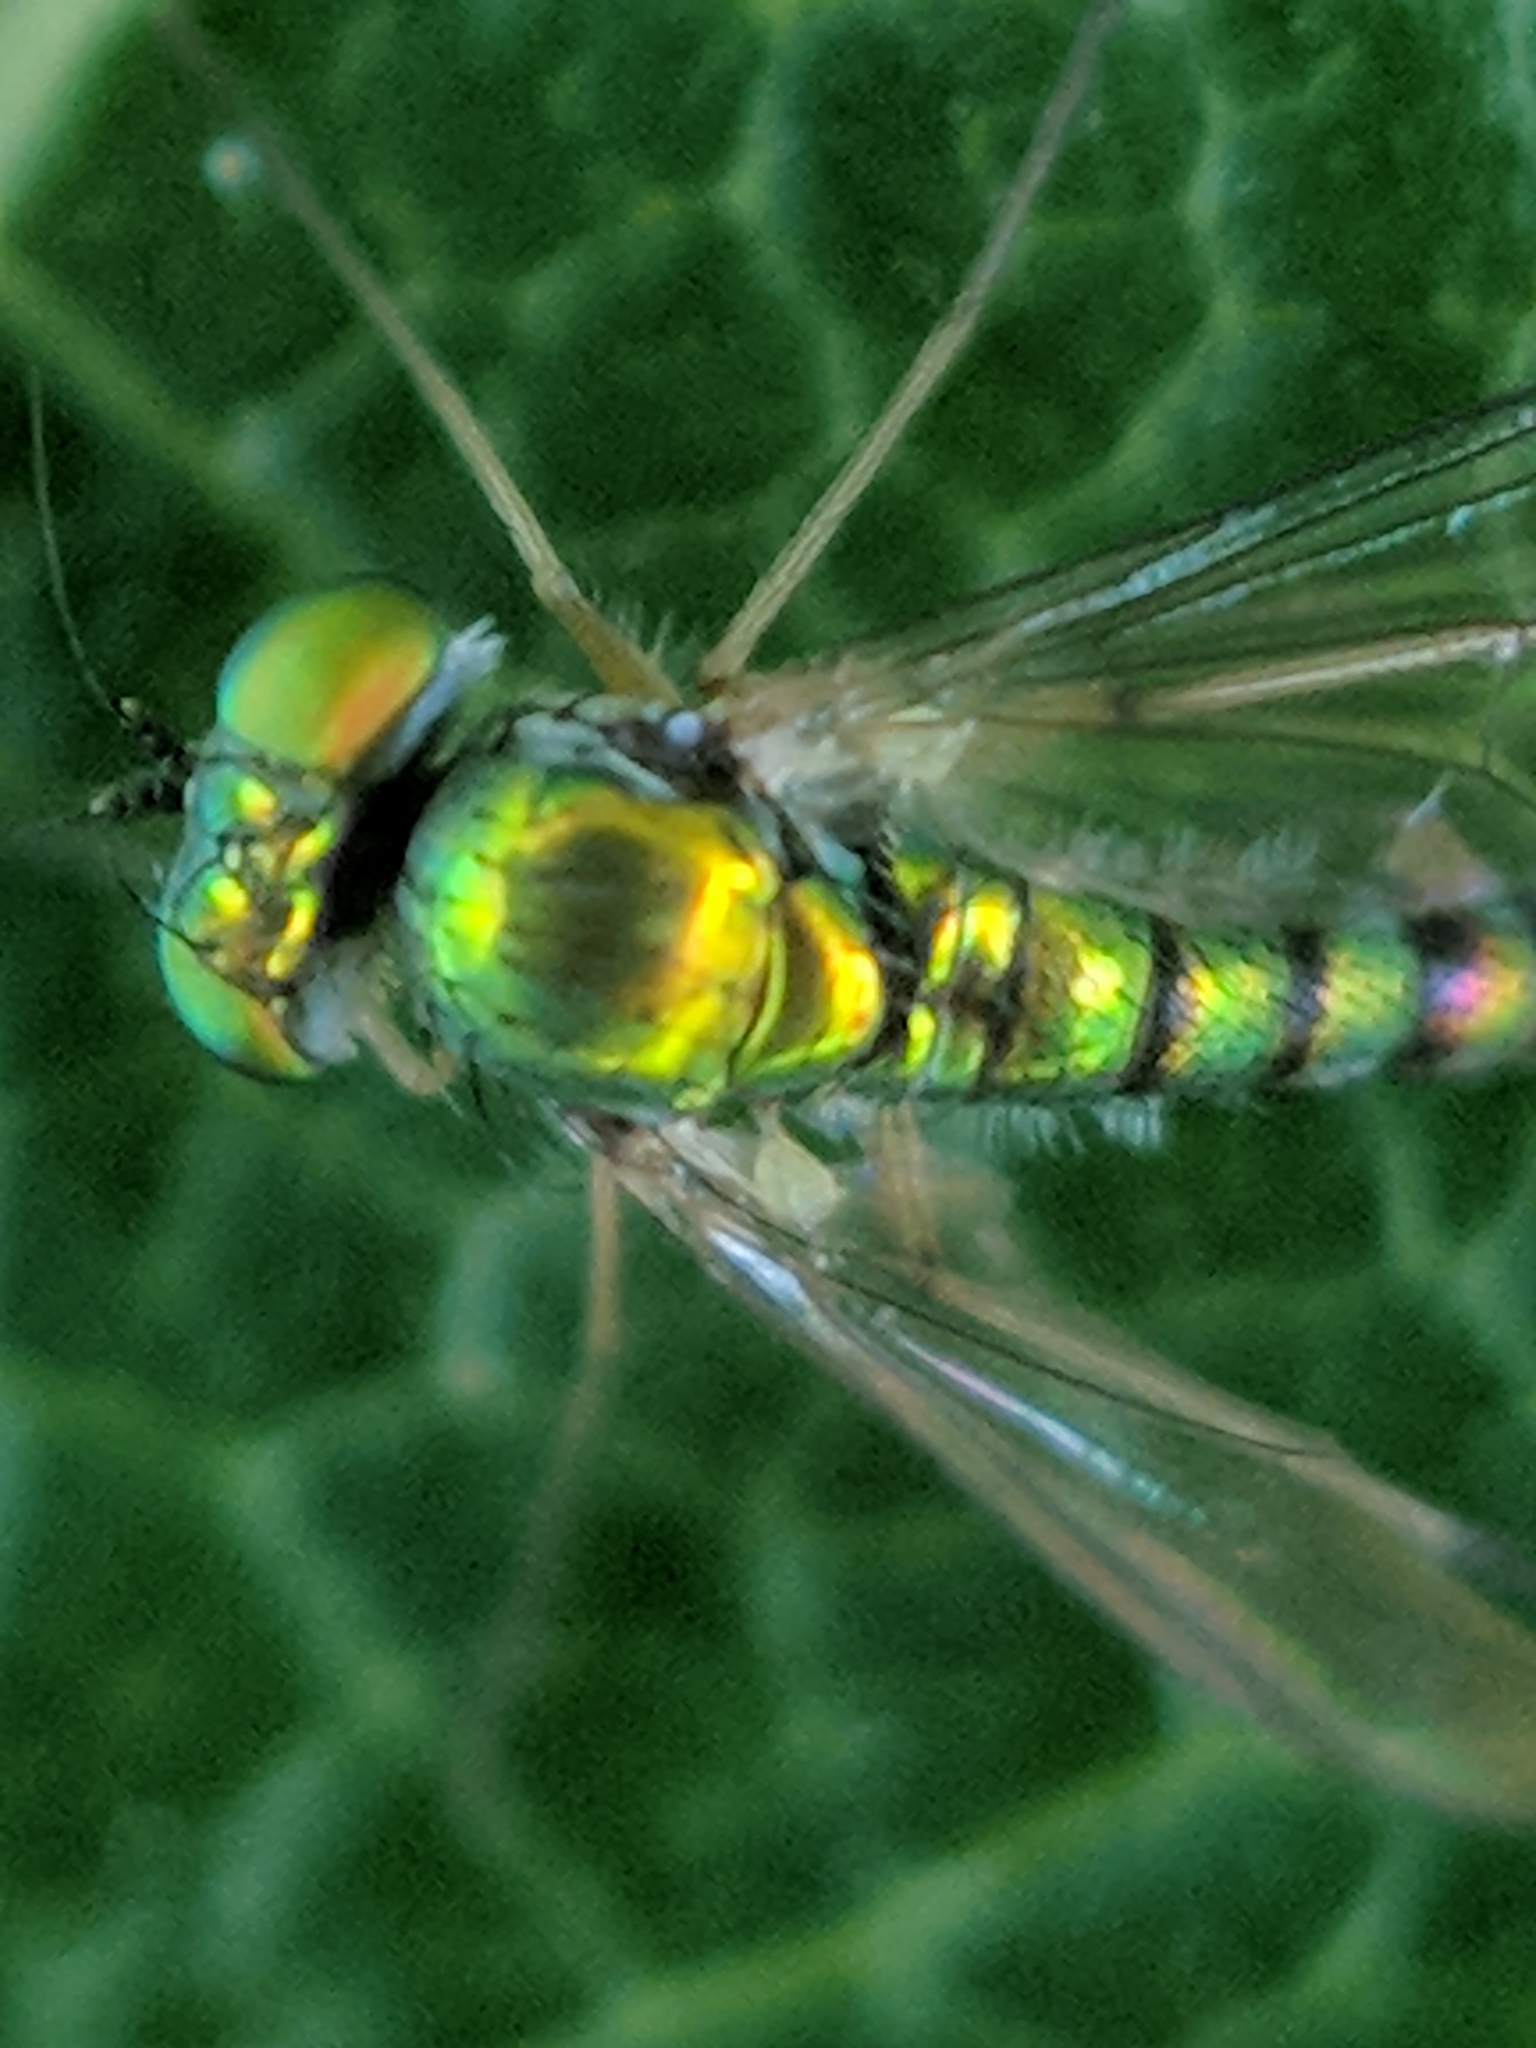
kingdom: Animalia
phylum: Arthropoda
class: Insecta
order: Diptera
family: Dolichopodidae
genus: Condylostylus
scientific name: Condylostylus flavipes
